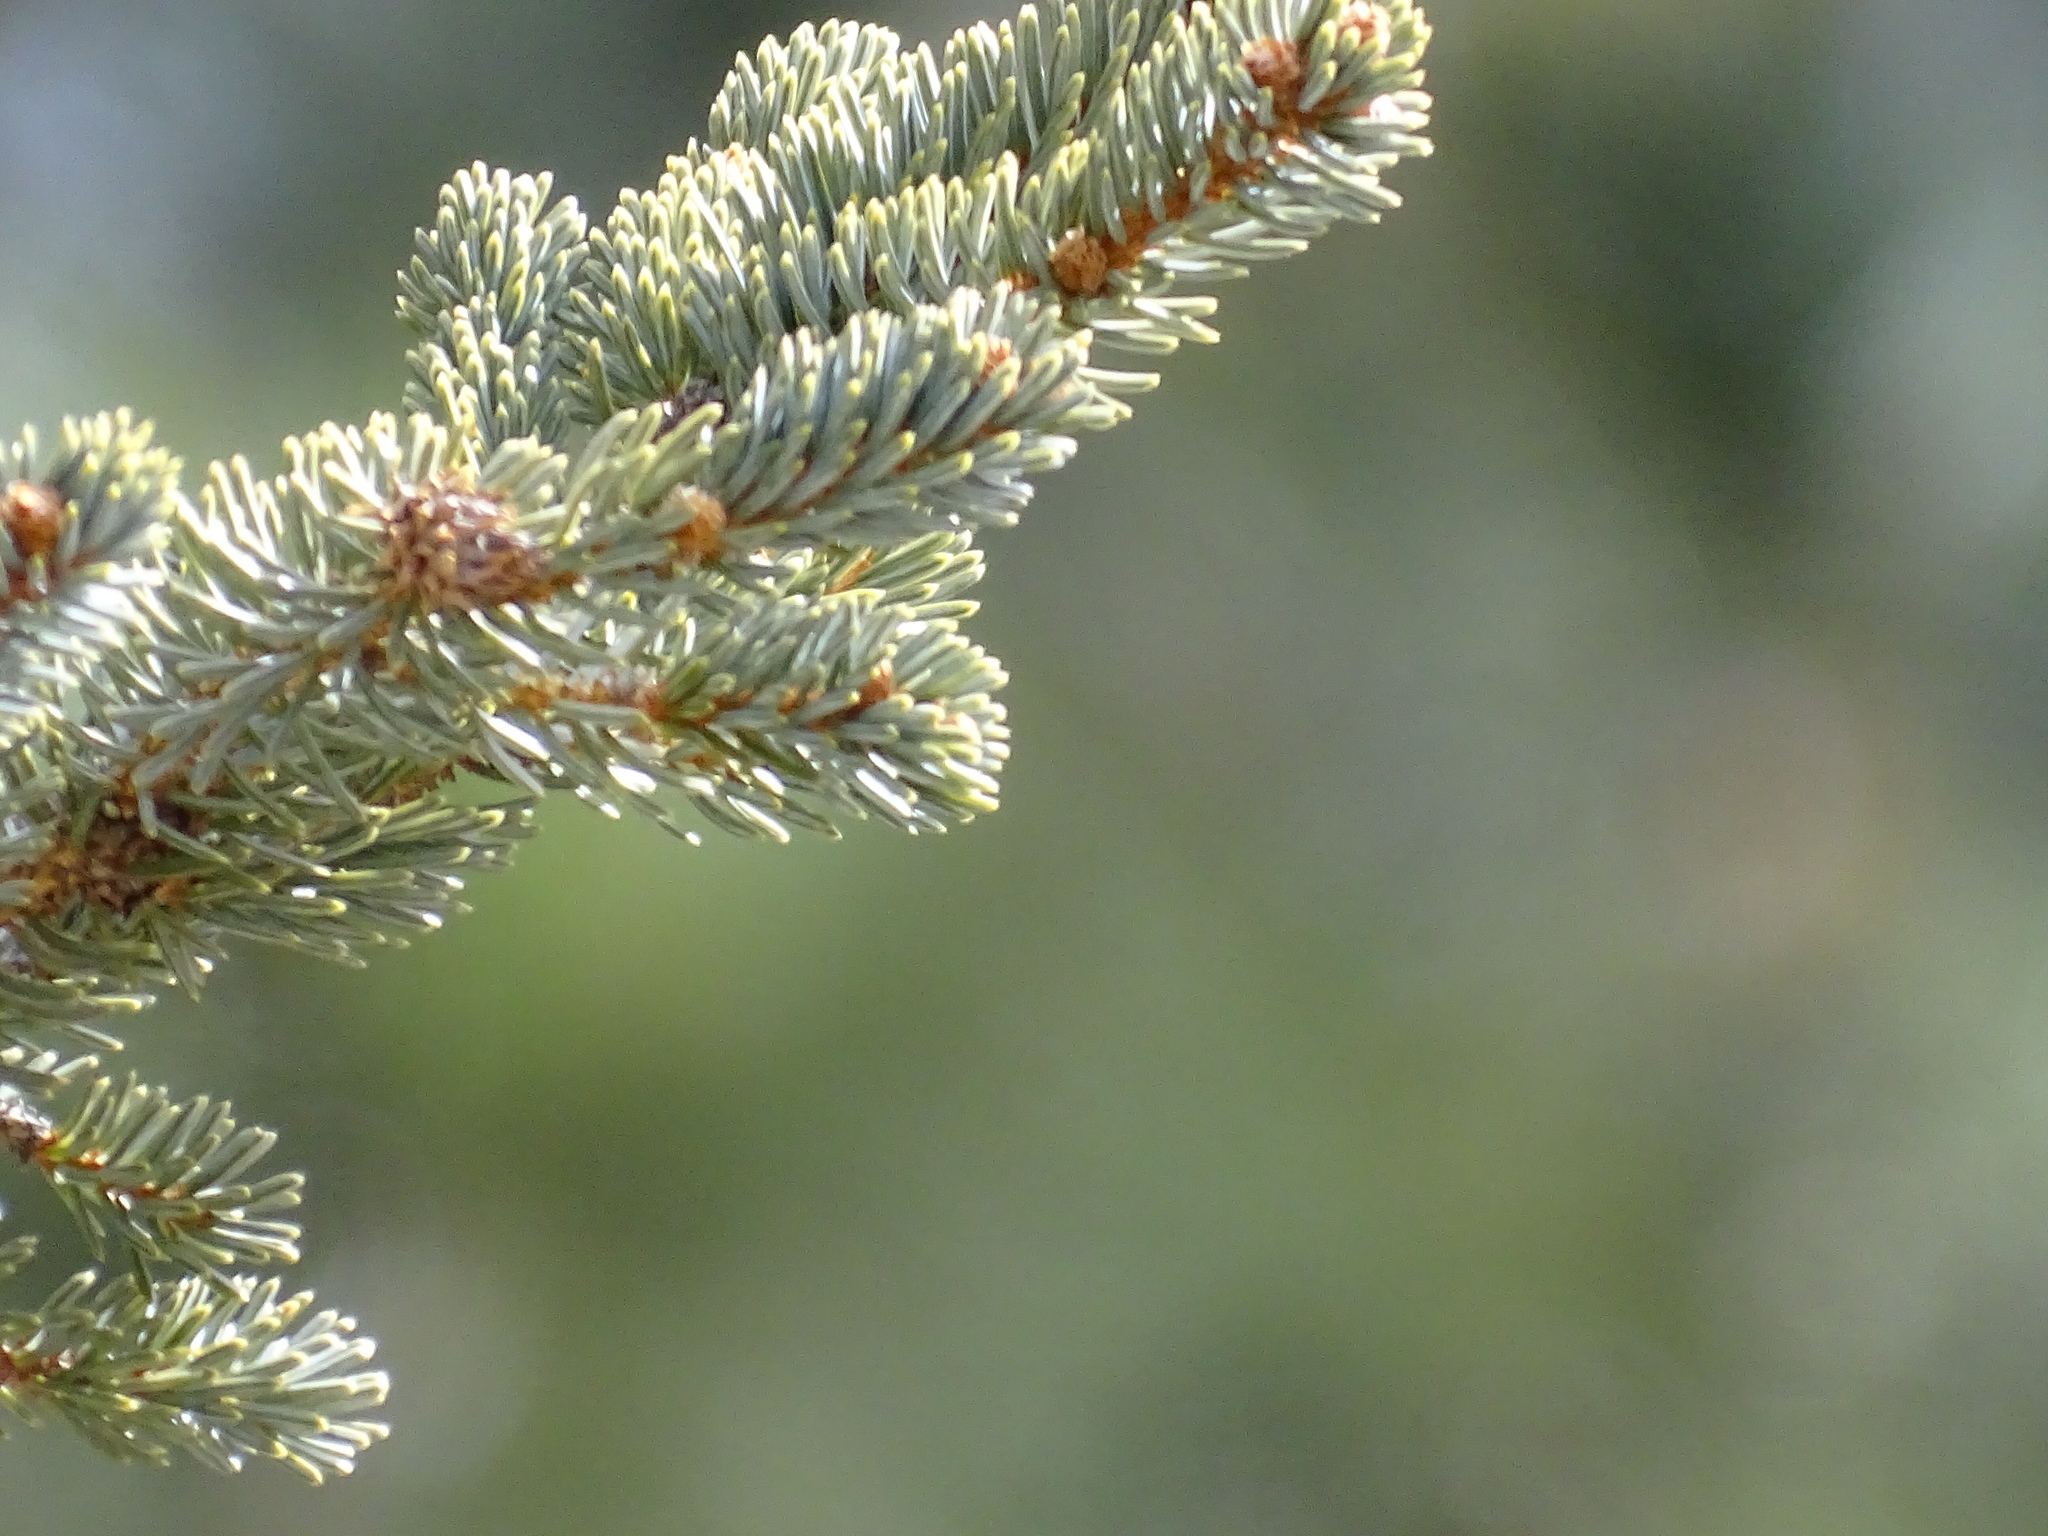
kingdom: Plantae
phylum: Tracheophyta
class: Pinopsida
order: Pinales
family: Pinaceae
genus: Picea
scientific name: Picea engelmannii
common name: Engelmann spruce
